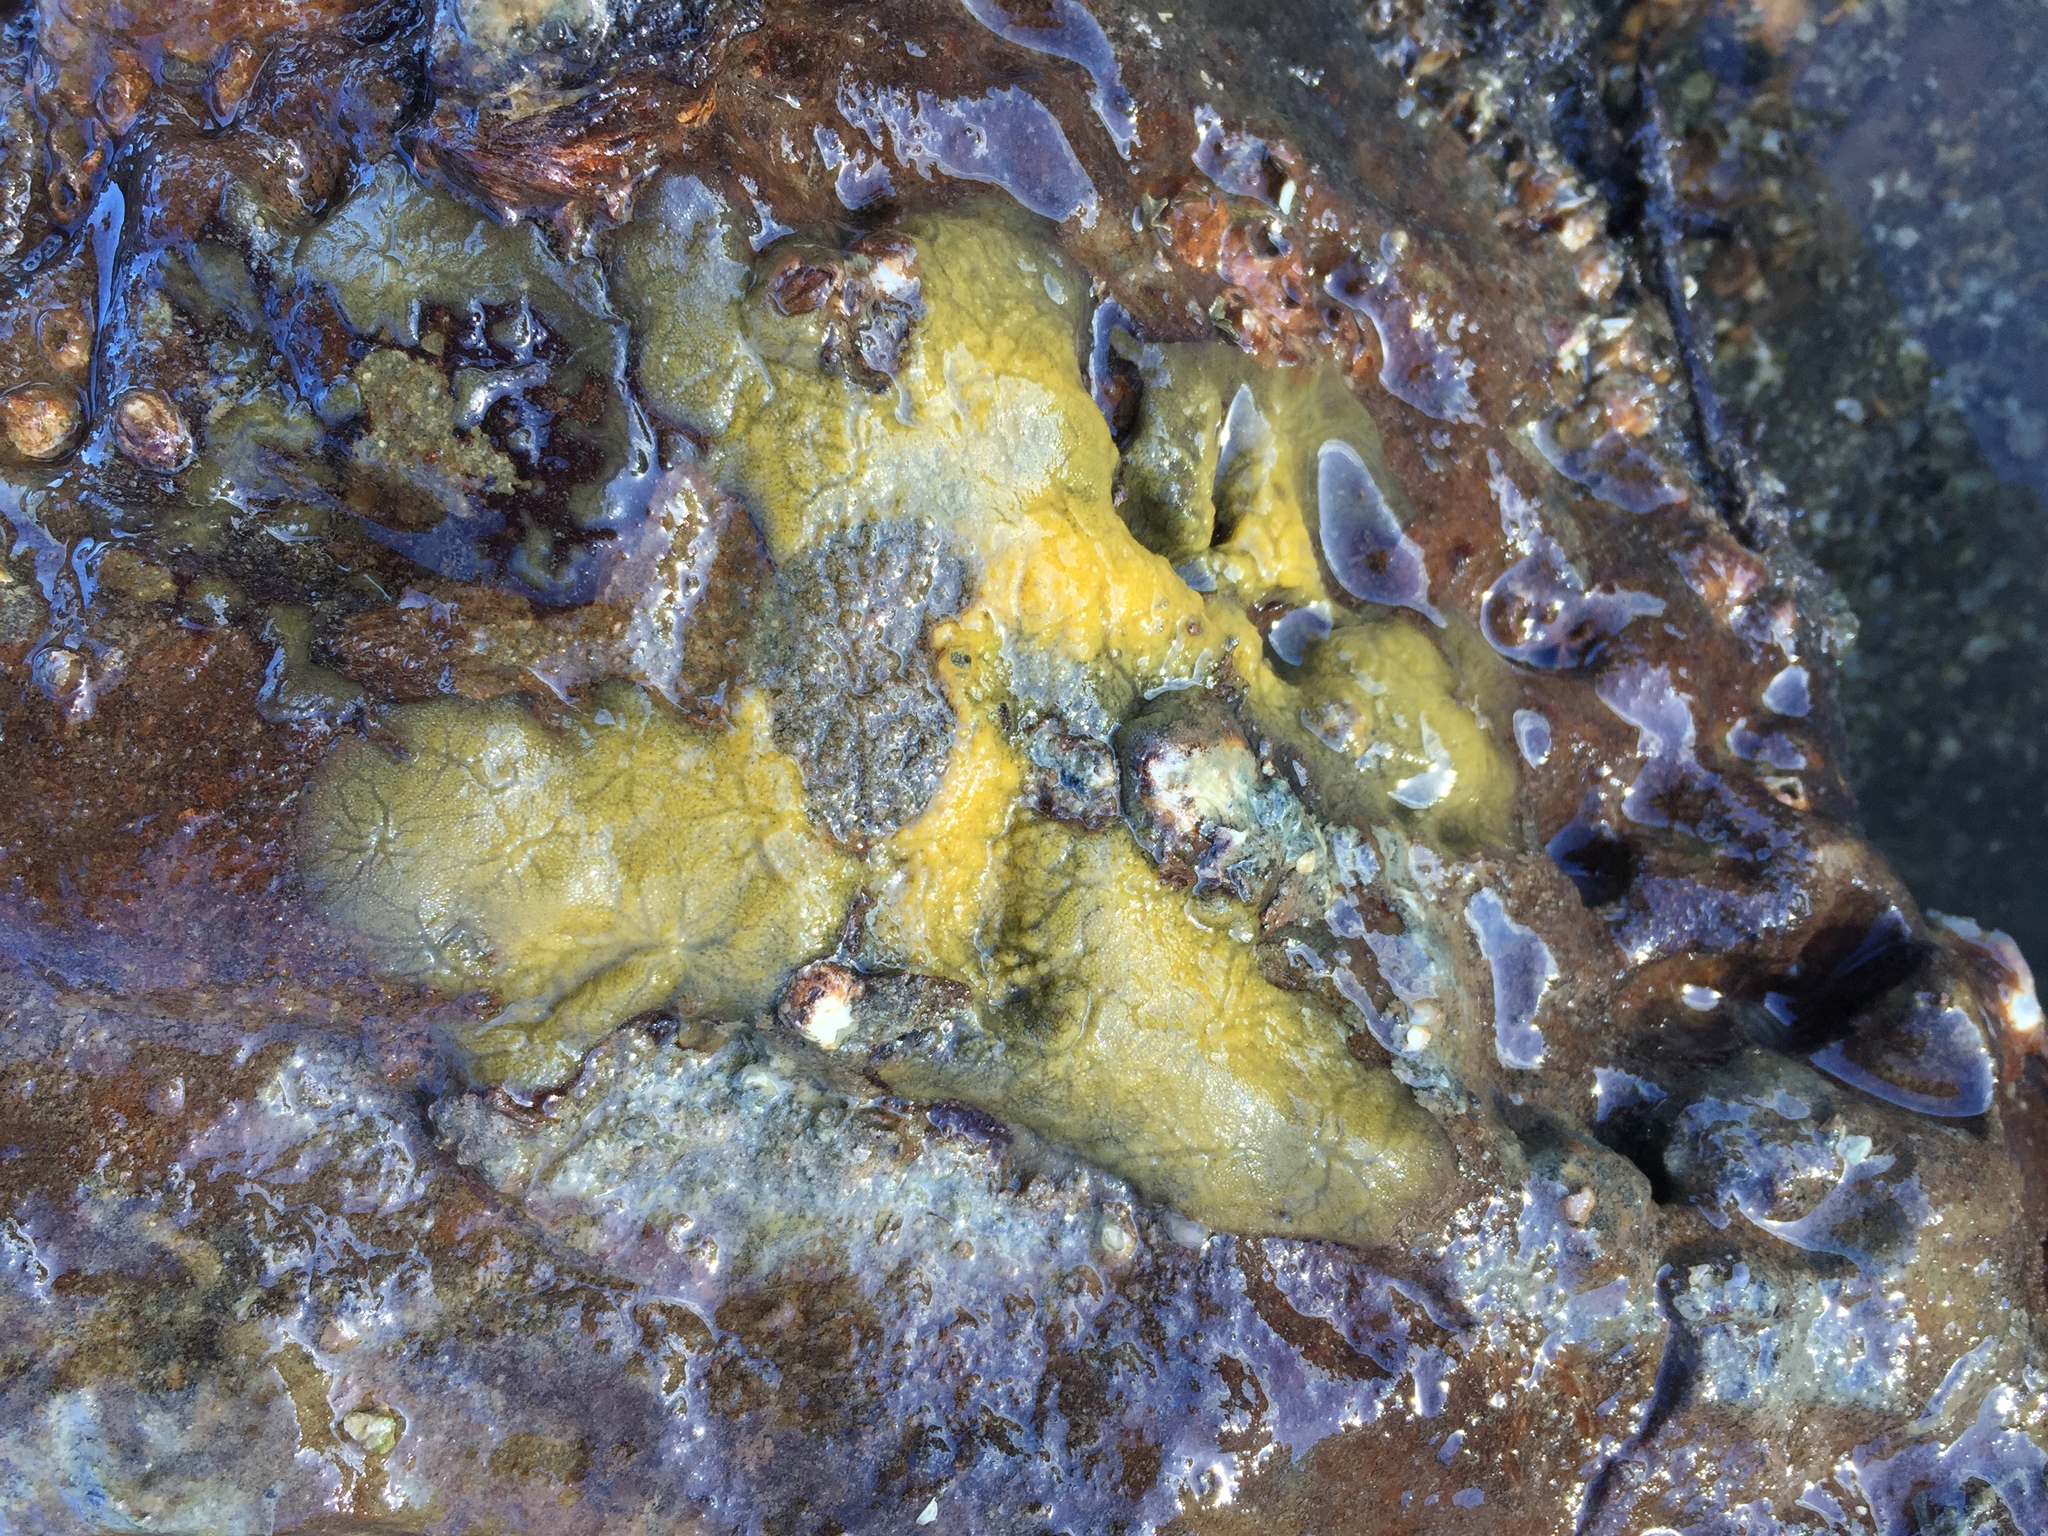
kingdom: Animalia
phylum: Porifera
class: Demospongiae
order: Tethyida
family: Timeidae
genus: Timea
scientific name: Timea aurantiaca
